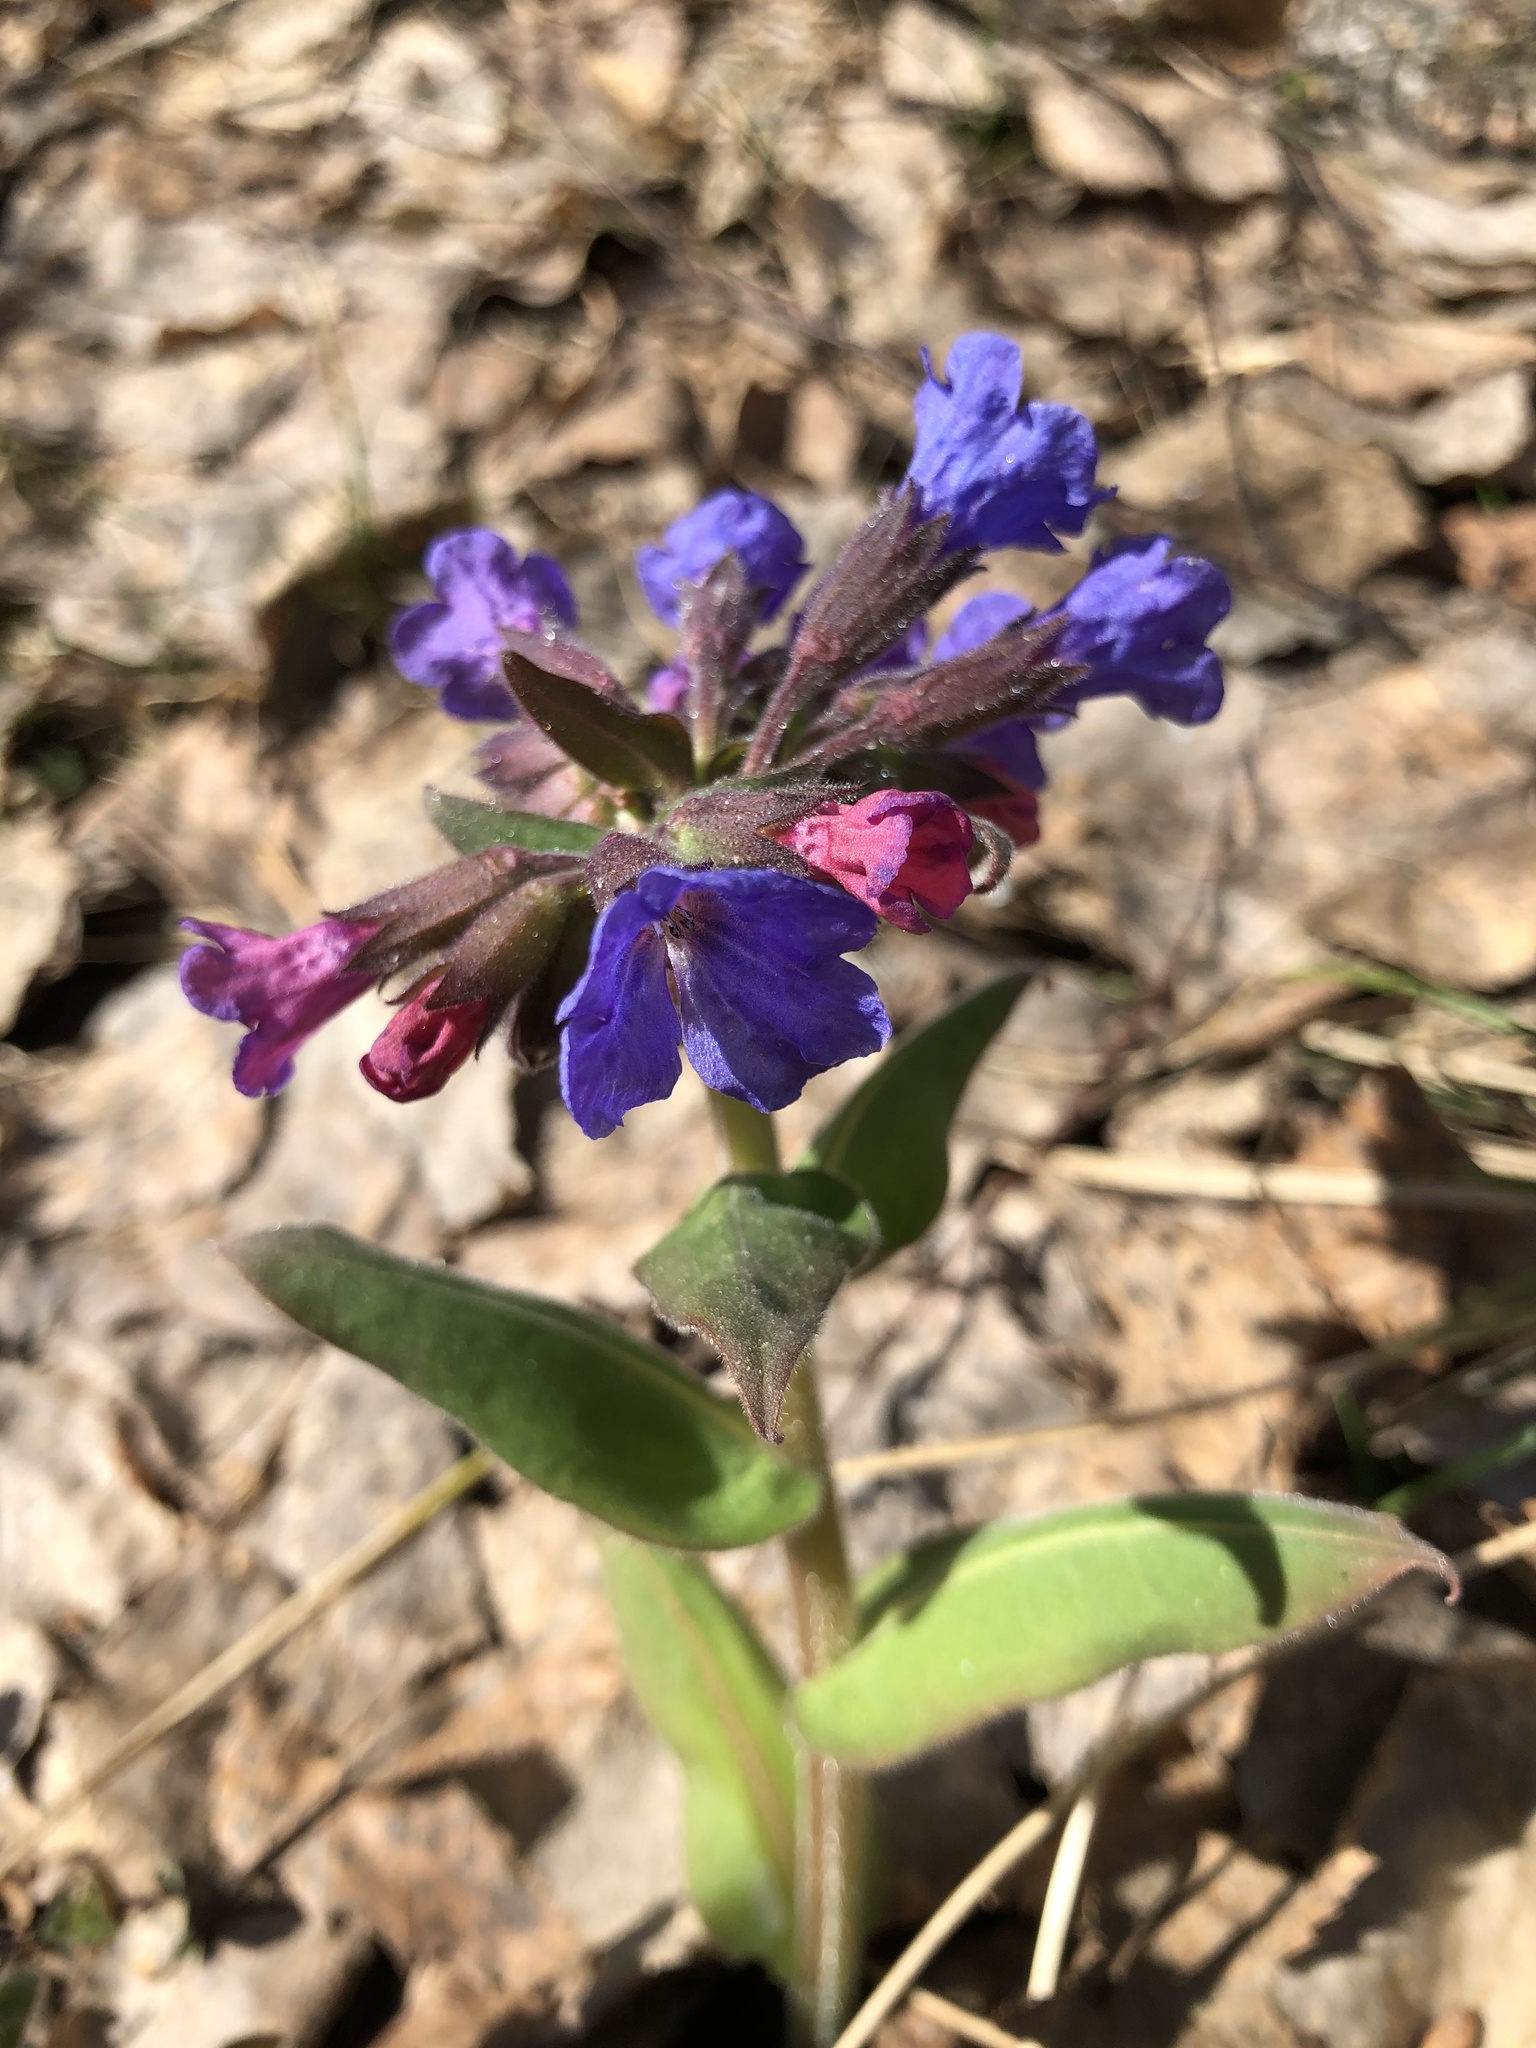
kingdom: Plantae
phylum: Tracheophyta
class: Magnoliopsida
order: Boraginales
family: Boraginaceae
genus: Pulmonaria
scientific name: Pulmonaria mollis
